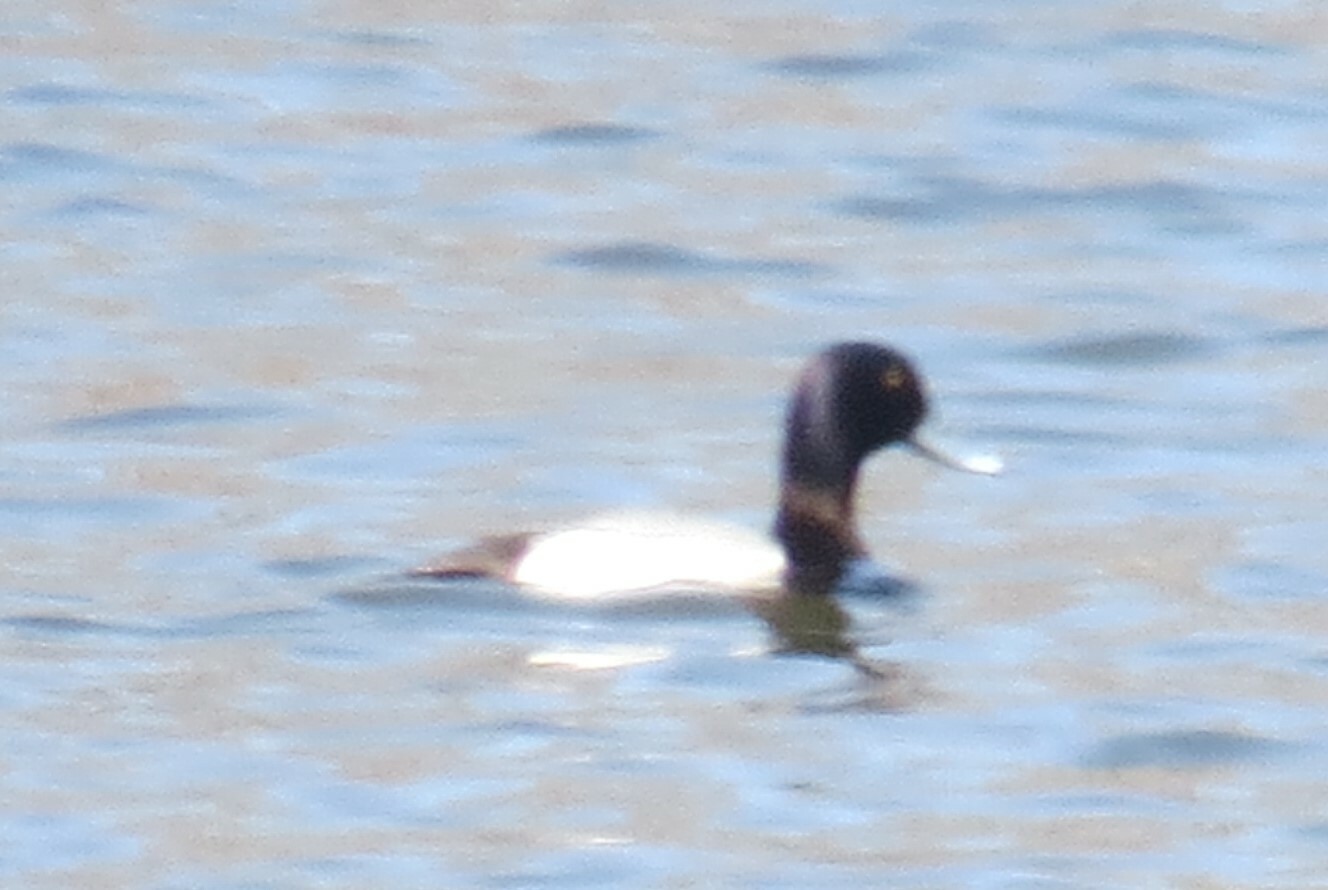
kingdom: Animalia
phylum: Chordata
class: Aves
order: Anseriformes
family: Anatidae
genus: Aythya
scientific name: Aythya affinis
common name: Lesser scaup
